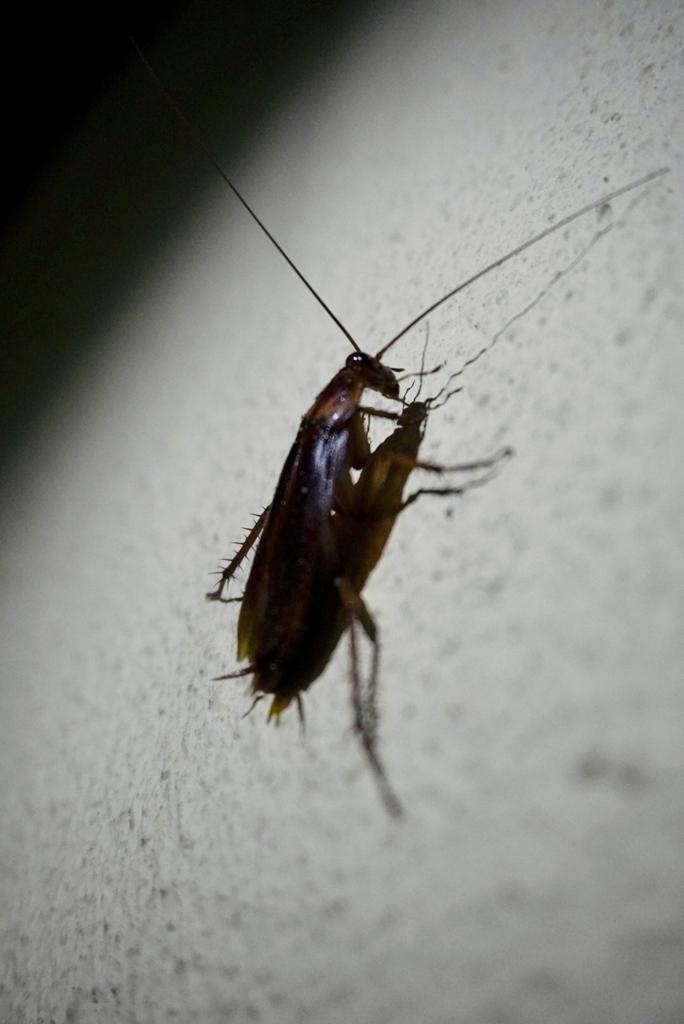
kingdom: Animalia
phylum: Arthropoda
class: Insecta
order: Blattodea
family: Blattidae
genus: Periplaneta
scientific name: Periplaneta americana
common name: American cockroach
